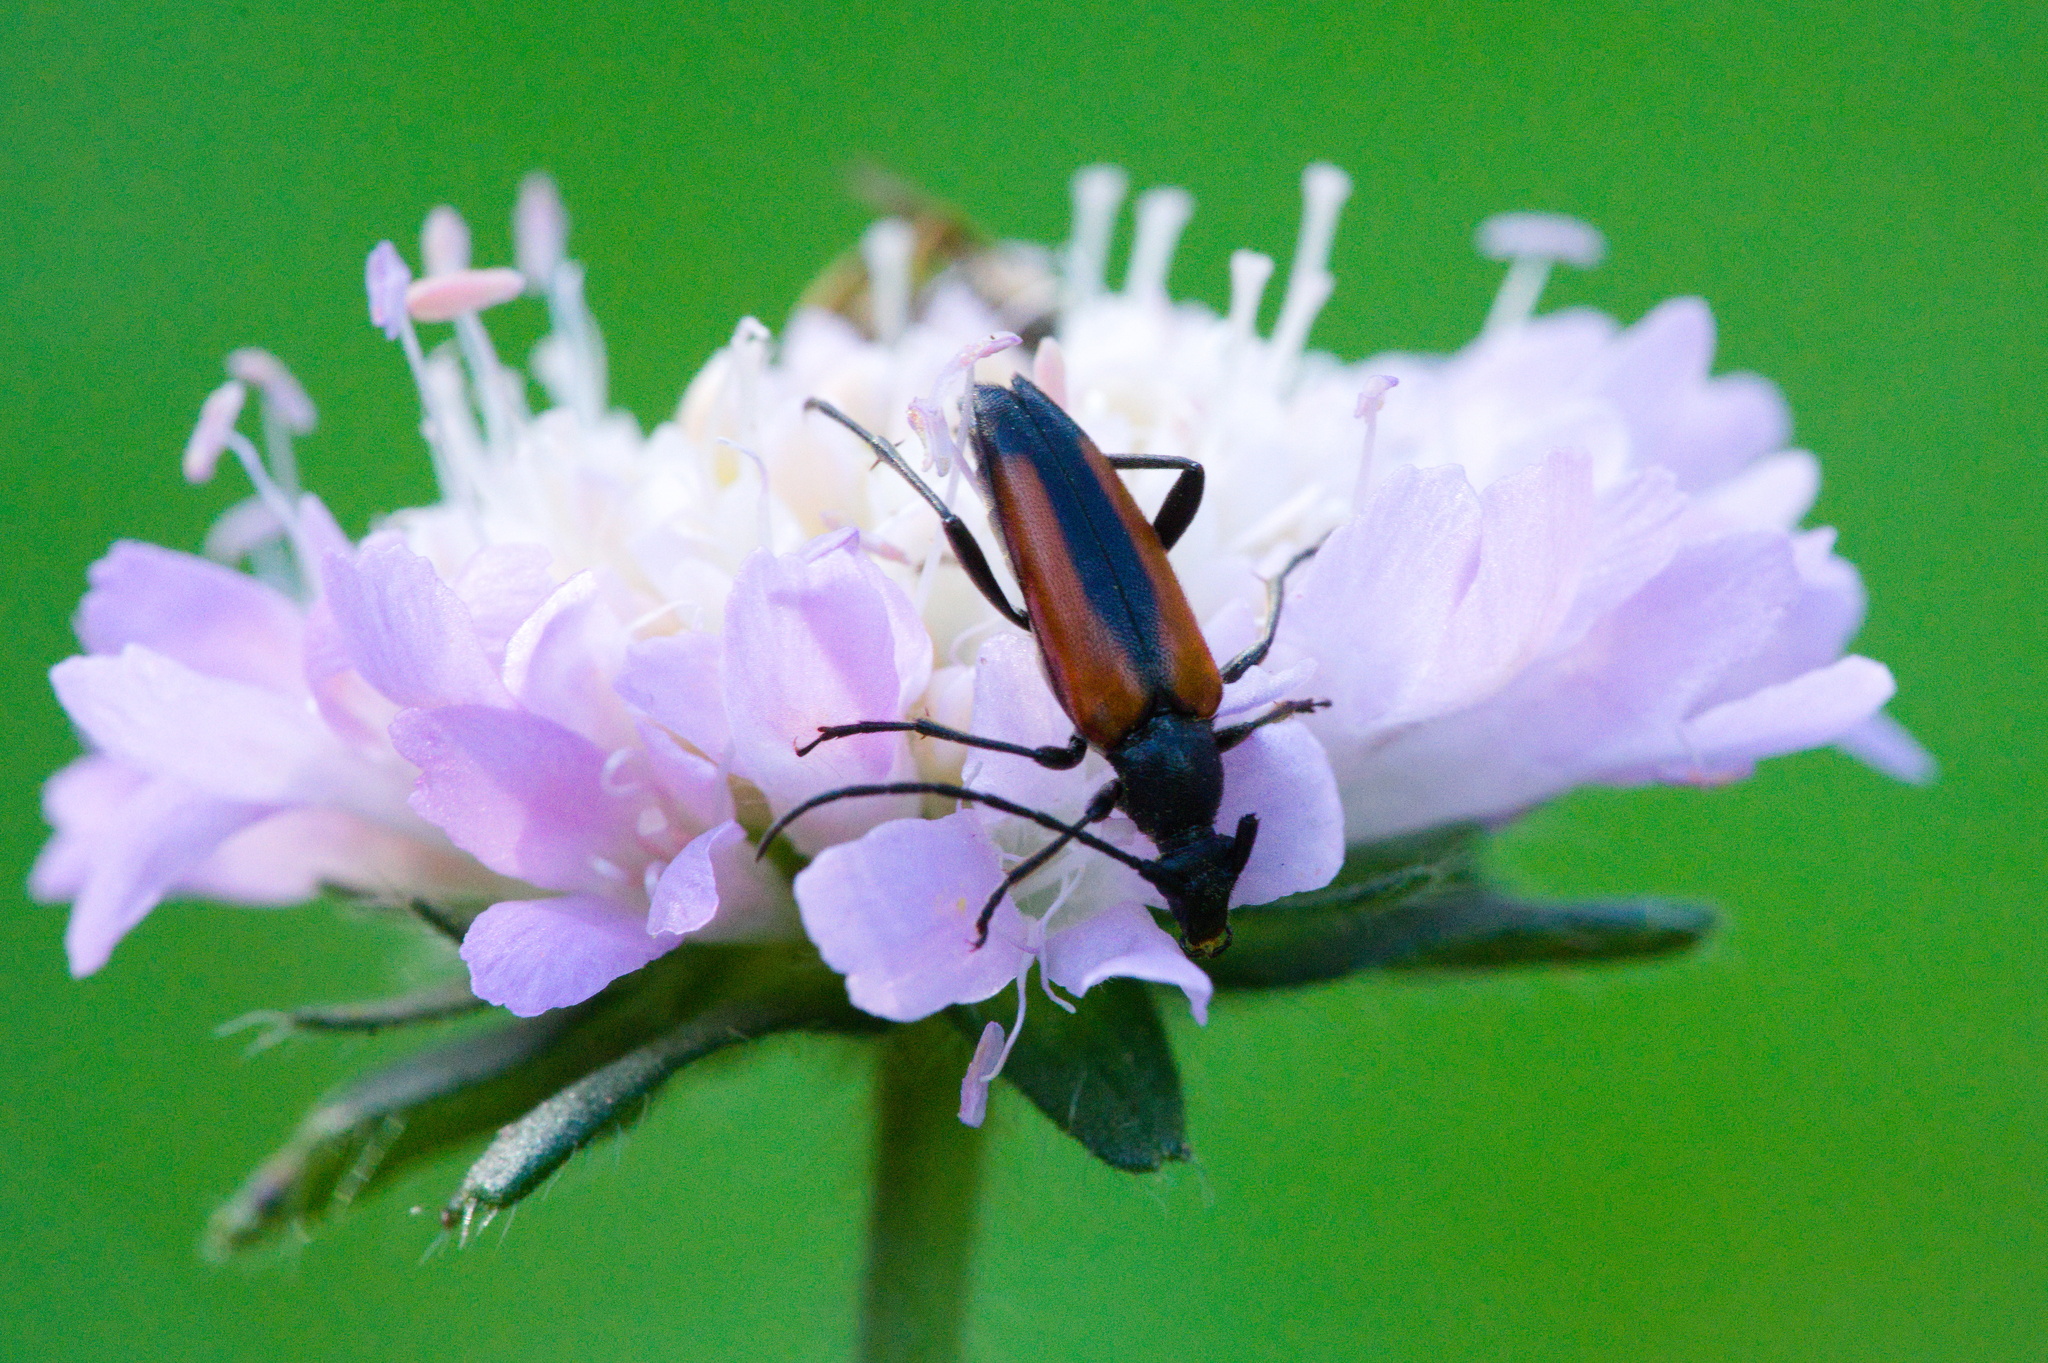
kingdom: Animalia
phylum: Arthropoda
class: Insecta
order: Coleoptera
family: Cerambycidae
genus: Stenurella
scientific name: Stenurella melanura
